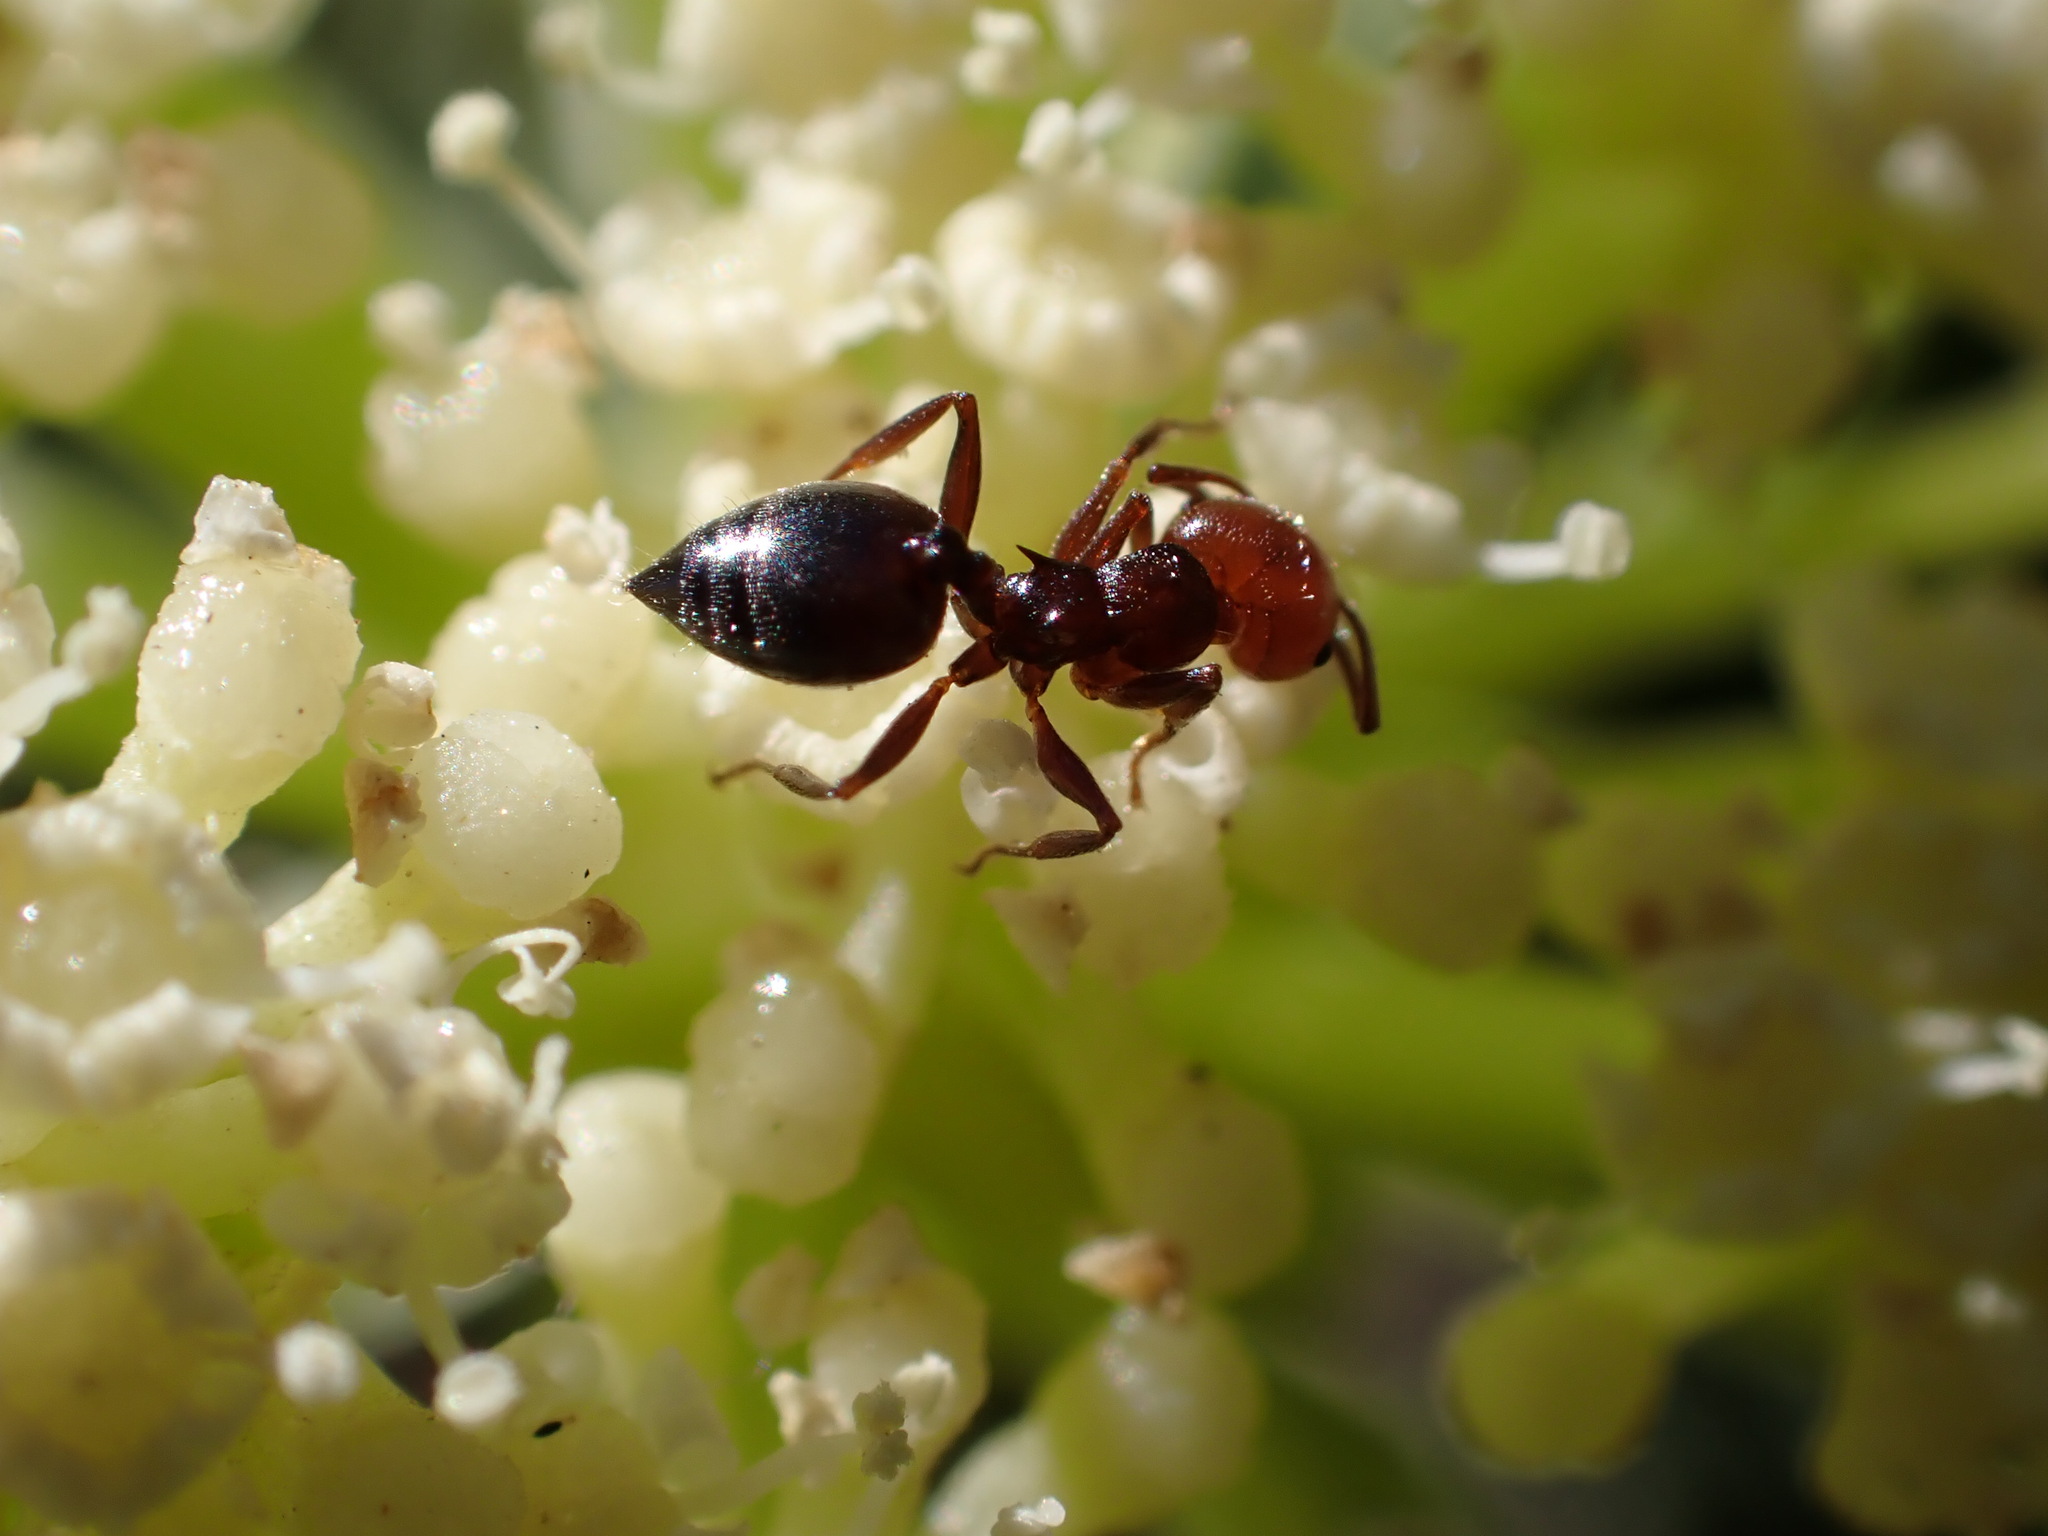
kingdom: Animalia
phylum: Arthropoda
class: Insecta
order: Hymenoptera
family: Formicidae
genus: Crematogaster
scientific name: Crematogaster scutellaris
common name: Fourmi du liège
